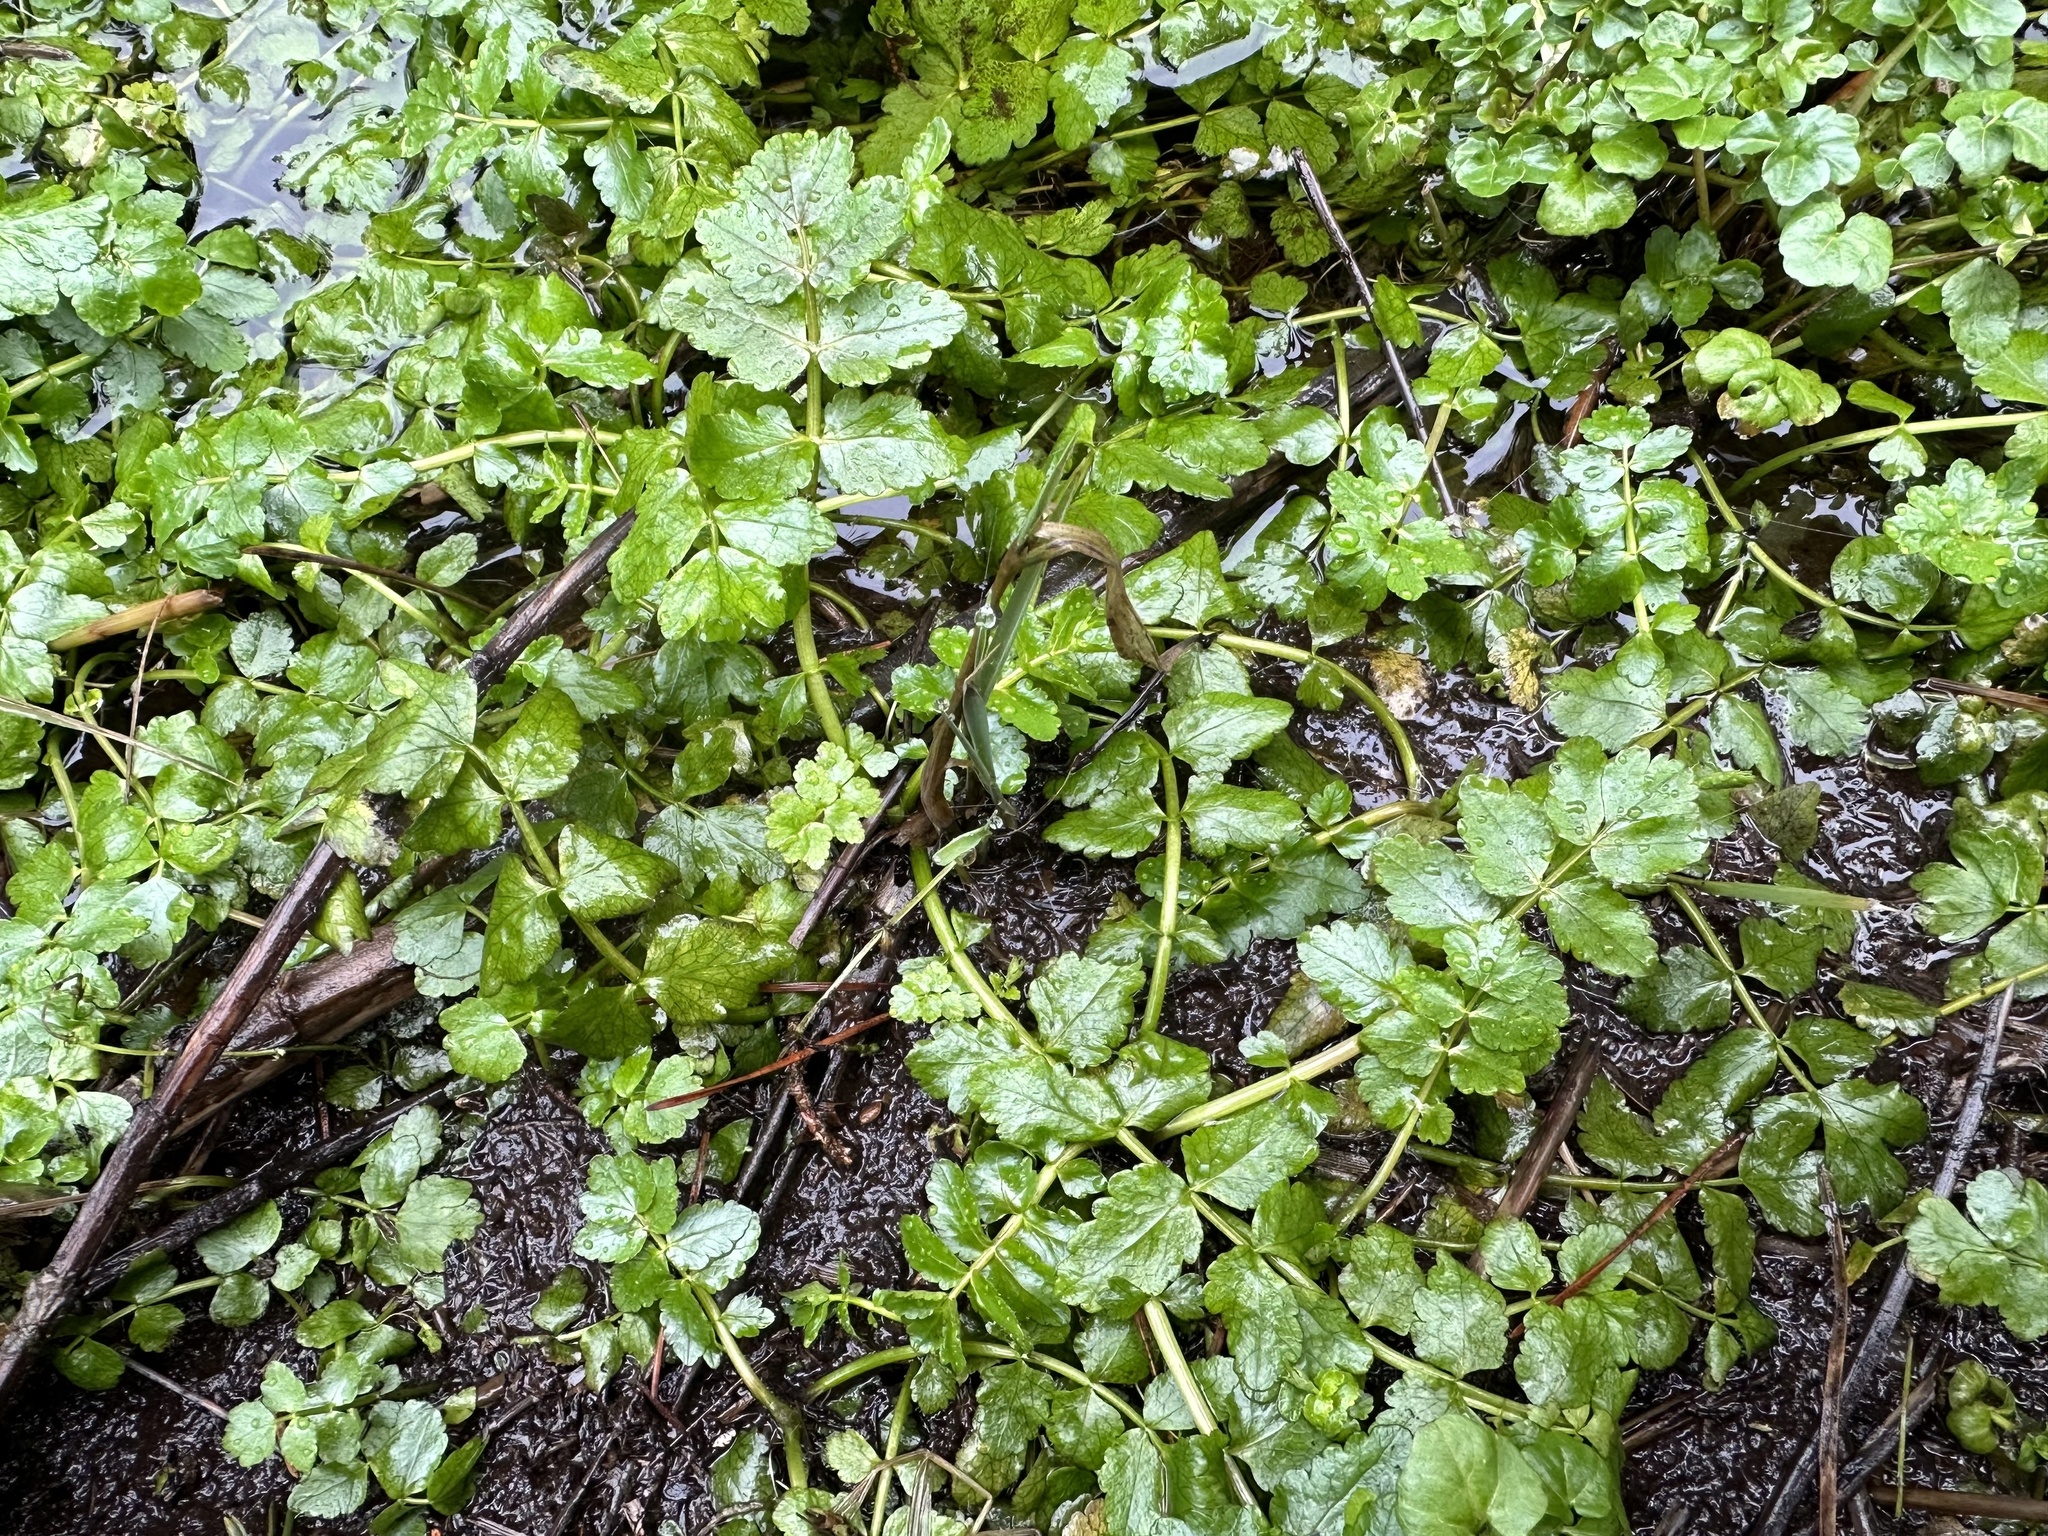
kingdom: Plantae
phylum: Tracheophyta
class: Magnoliopsida
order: Brassicales
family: Brassicaceae
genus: Nasturtium
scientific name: Nasturtium officinale
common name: Watercress
